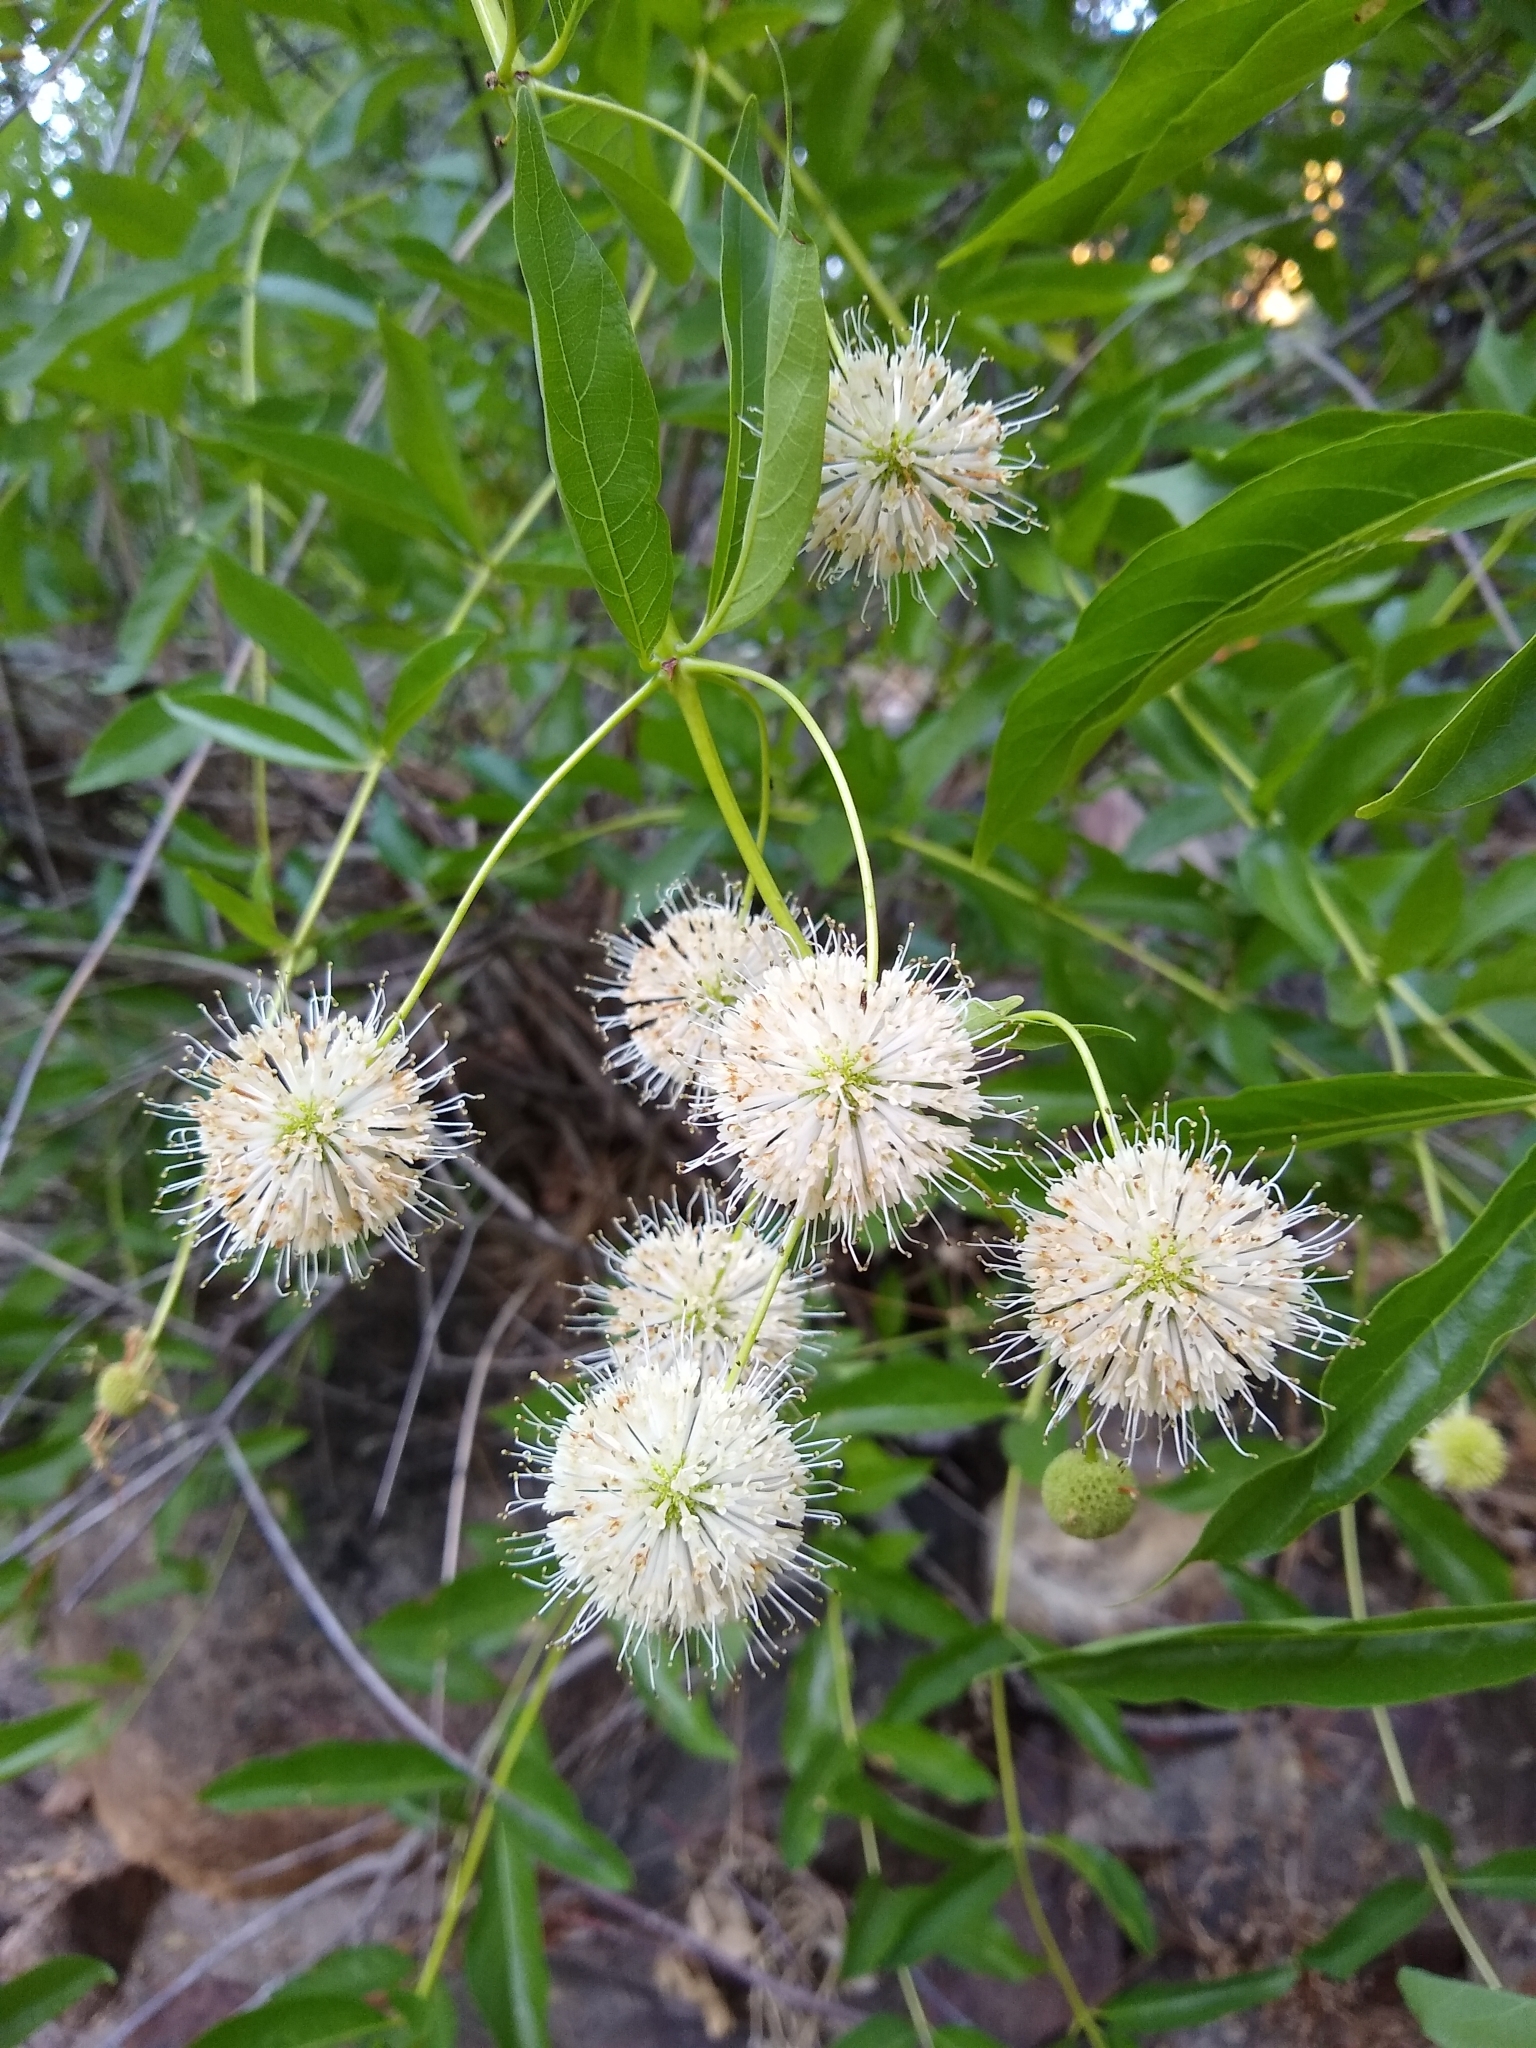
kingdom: Plantae
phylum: Tracheophyta
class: Magnoliopsida
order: Gentianales
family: Rubiaceae
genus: Cephalanthus
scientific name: Cephalanthus occidentalis
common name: Button-willow
